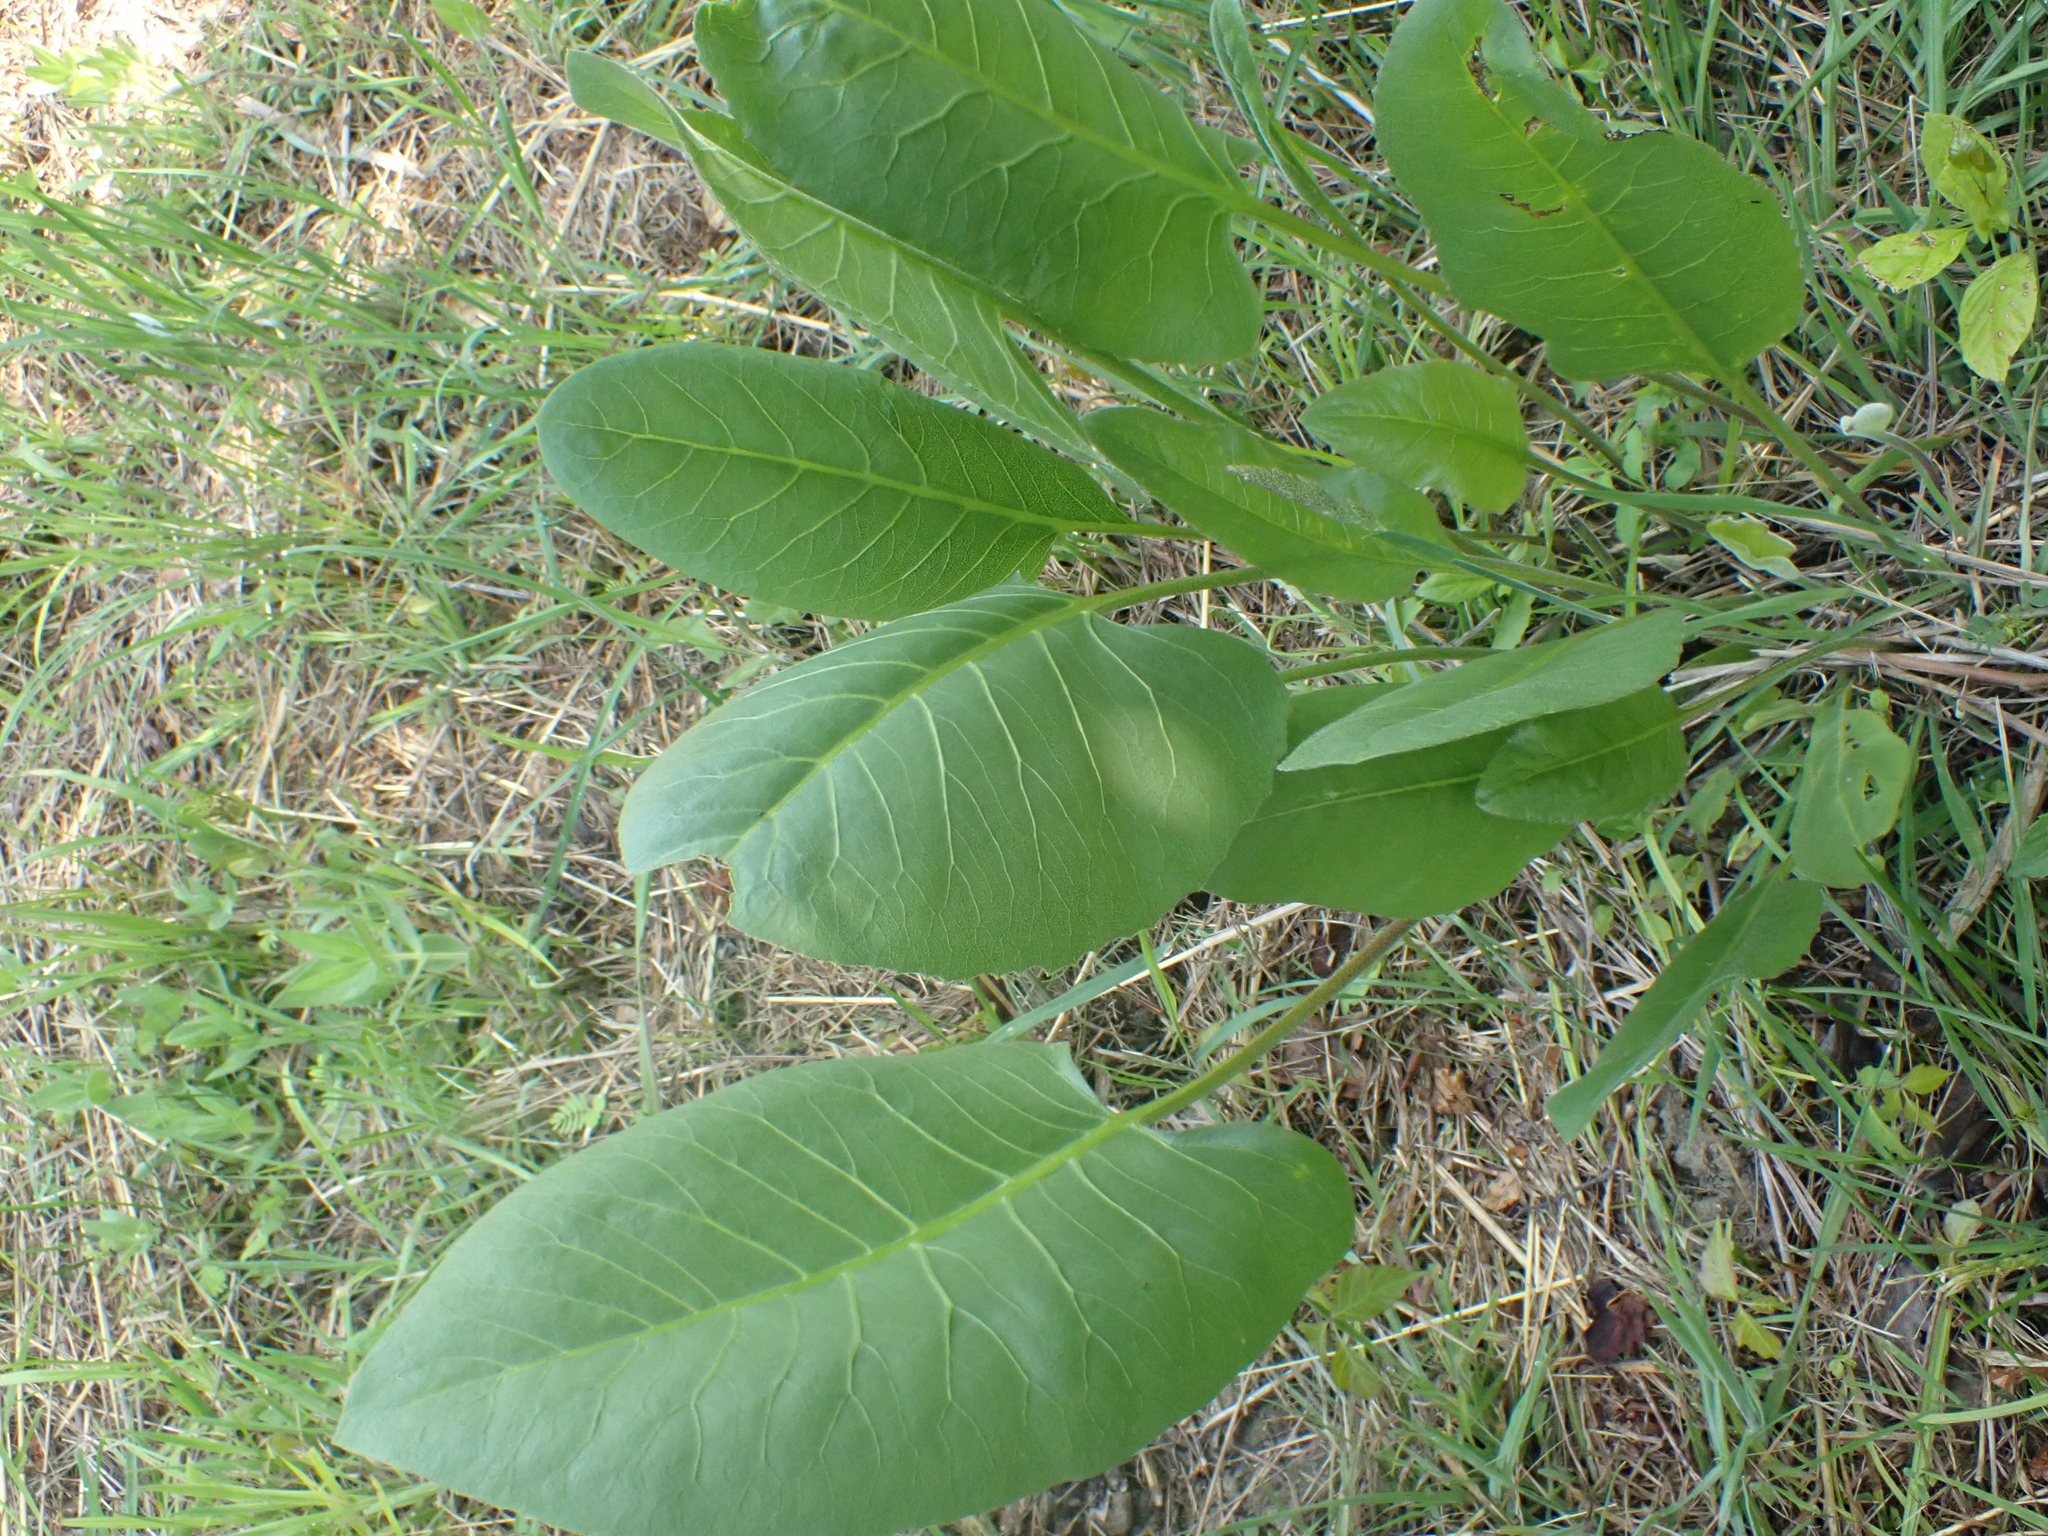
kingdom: Plantae
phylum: Tracheophyta
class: Magnoliopsida
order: Asterales
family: Asteraceae
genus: Silphium
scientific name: Silphium terebinthinaceum
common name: Basal-leaf rosinweed
